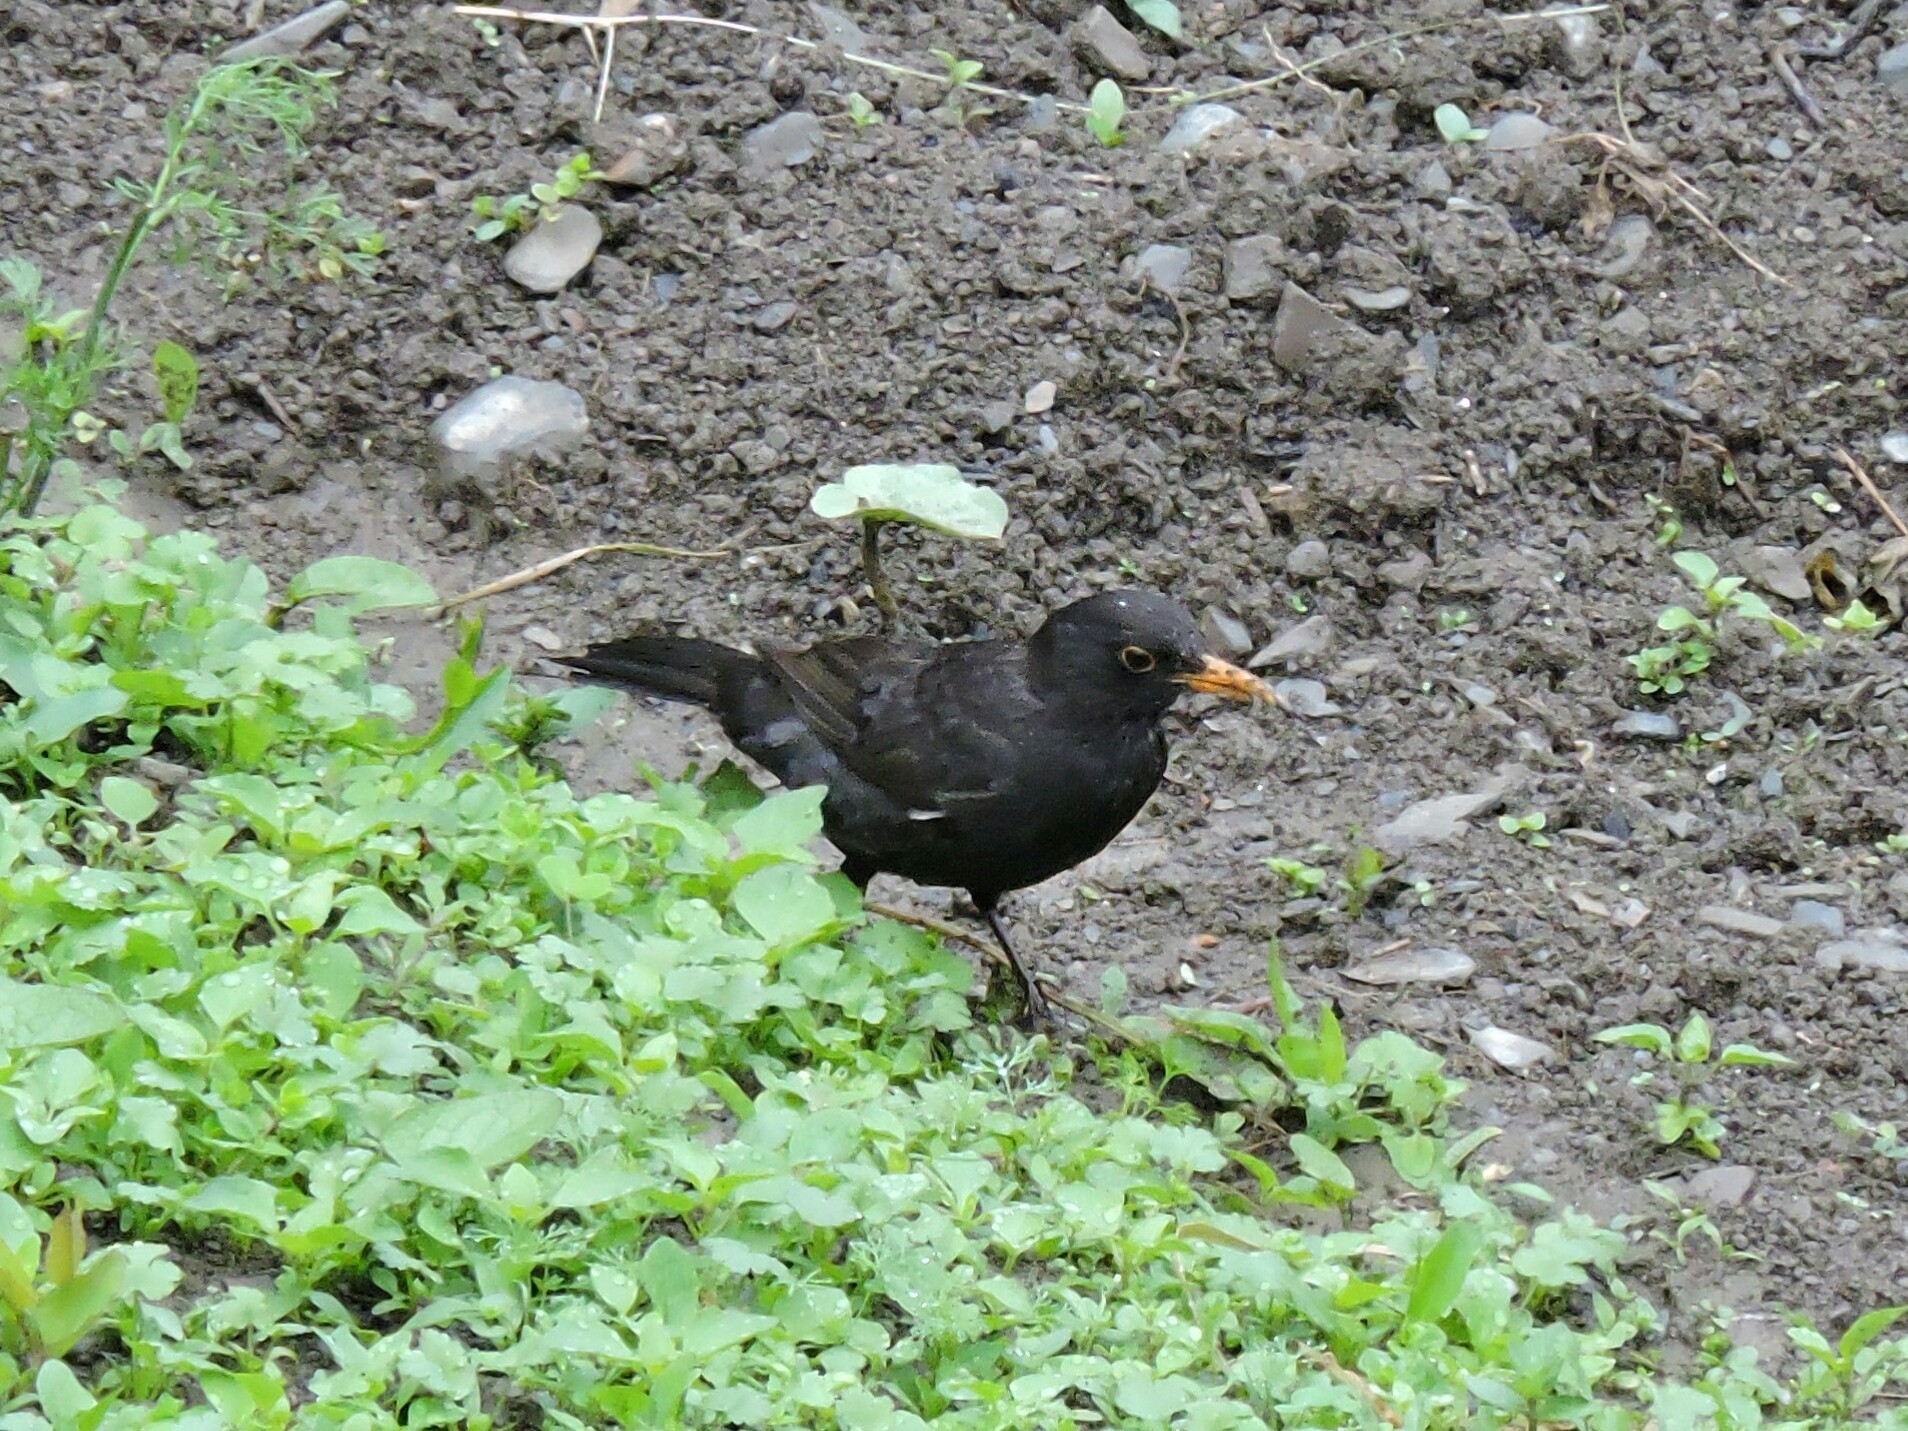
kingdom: Animalia
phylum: Chordata
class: Aves
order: Passeriformes
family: Turdidae
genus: Turdus
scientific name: Turdus merula
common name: Common blackbird
